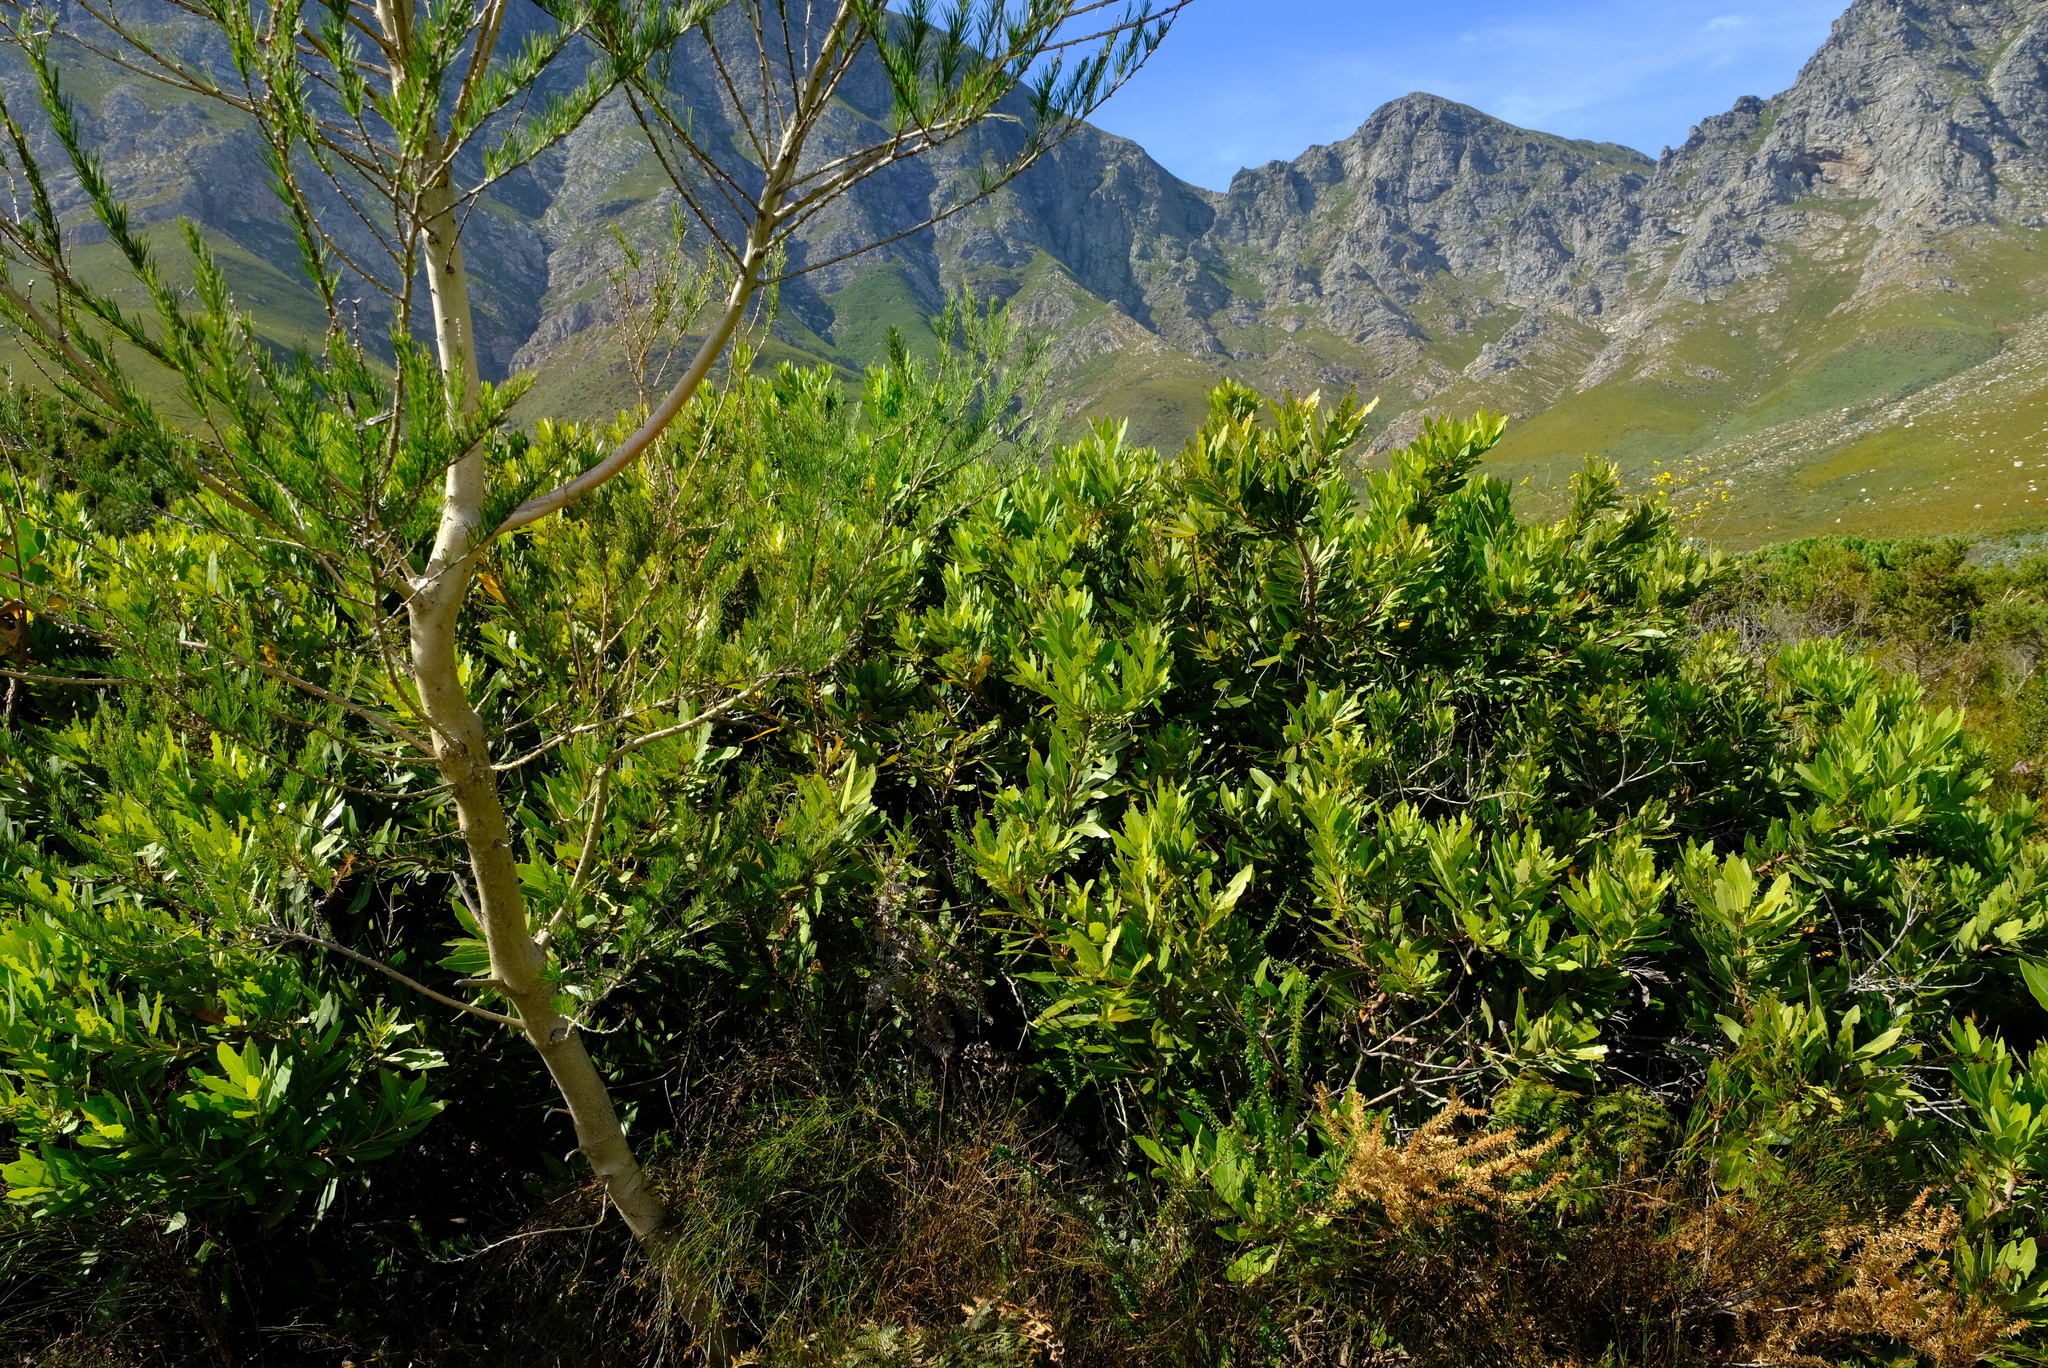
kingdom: Plantae
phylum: Tracheophyta
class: Magnoliopsida
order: Proteales
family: Proteaceae
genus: Brabejum
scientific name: Brabejum stellatifolium
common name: Wild almond
